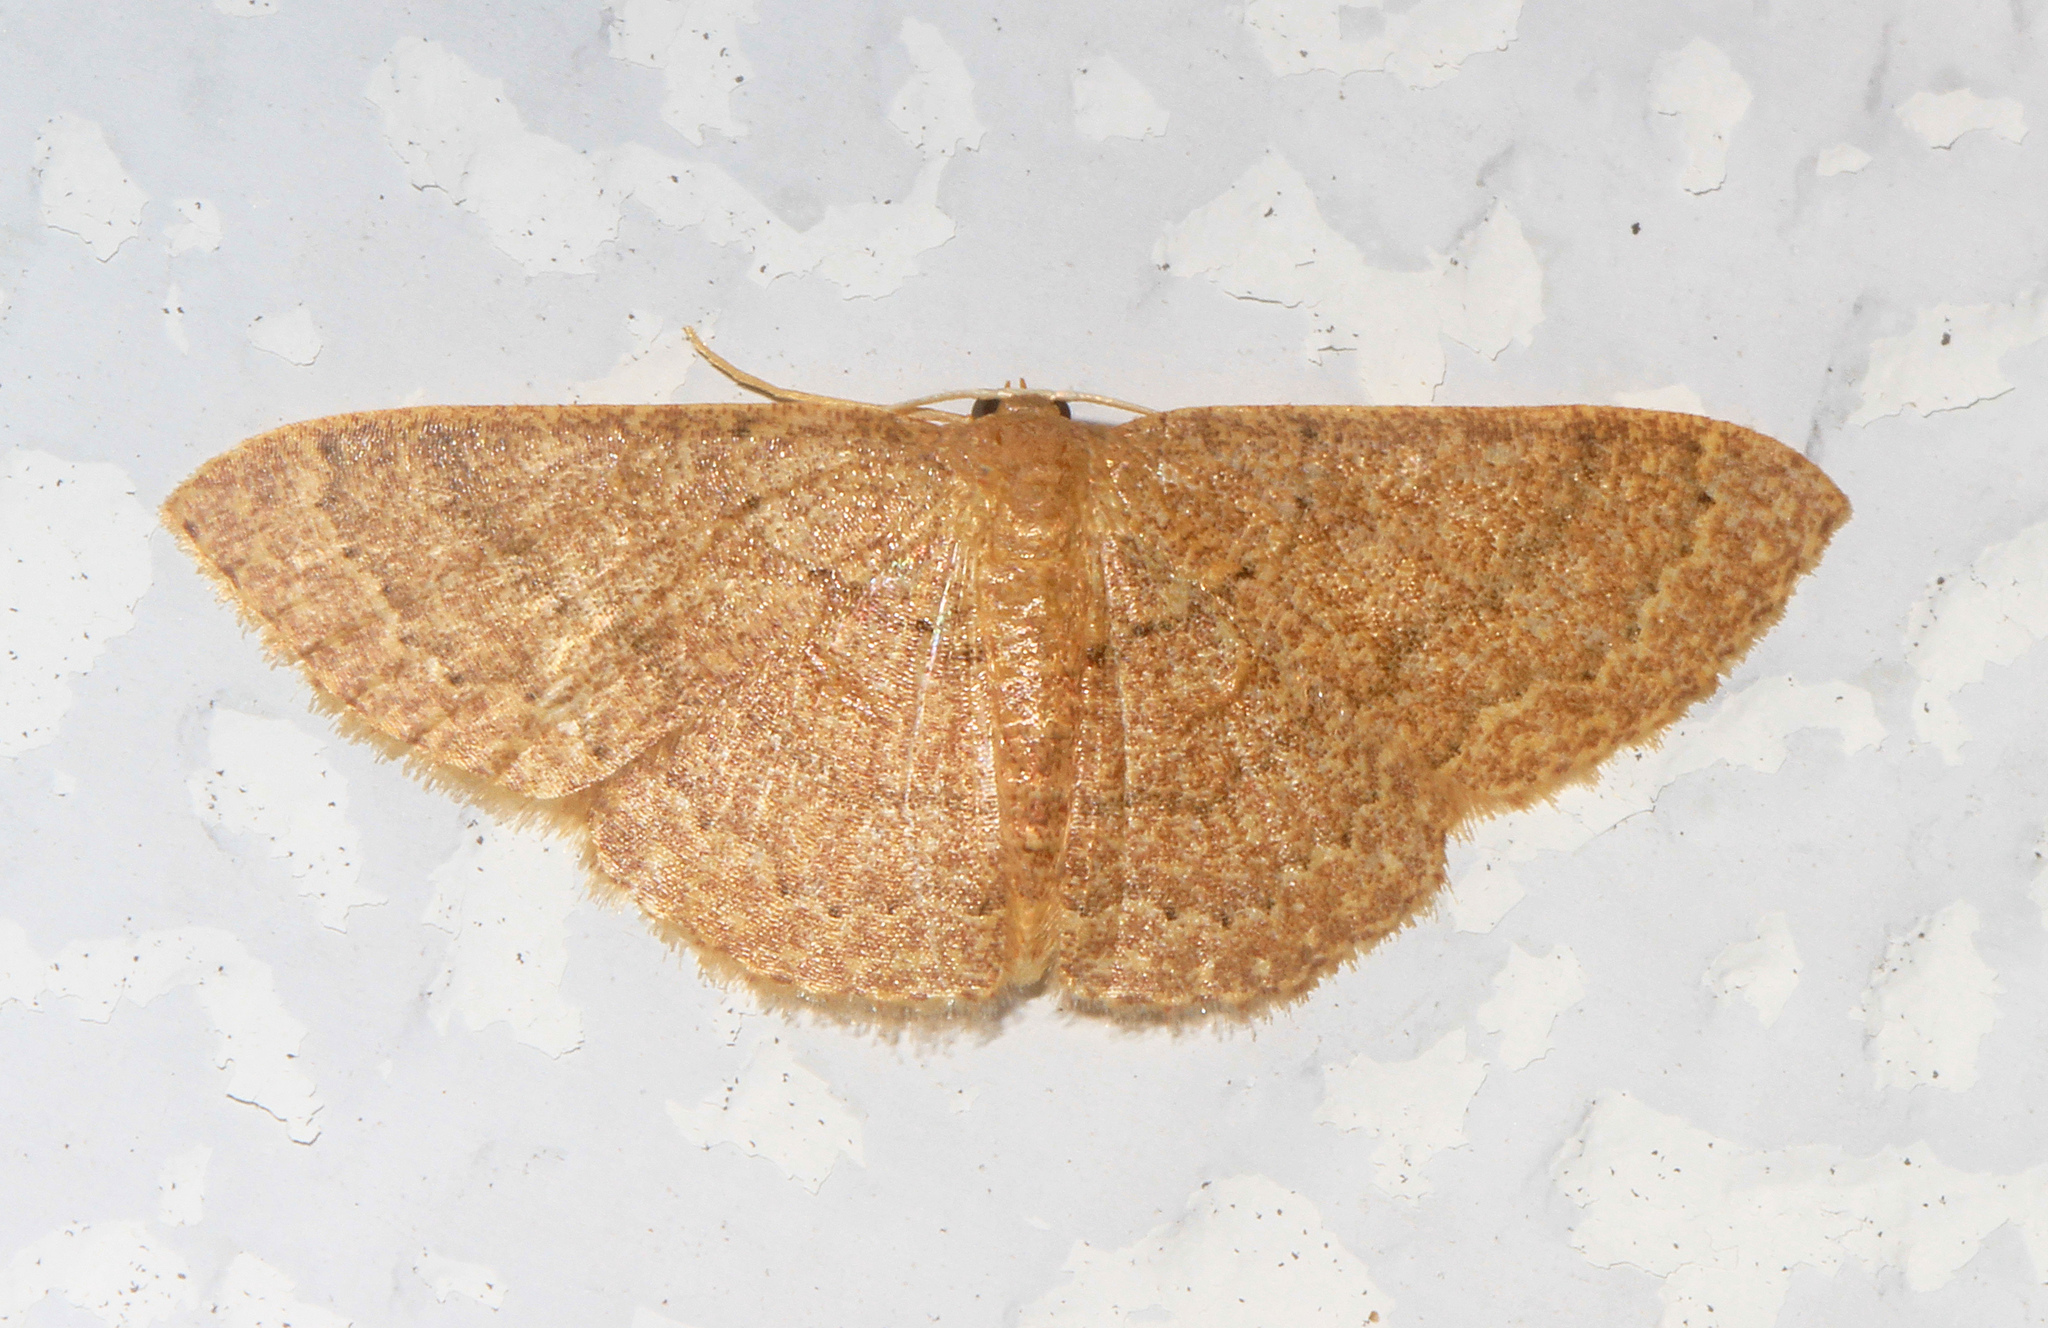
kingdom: Animalia
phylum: Arthropoda
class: Insecta
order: Lepidoptera
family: Geometridae
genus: Pleuroprucha
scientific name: Pleuroprucha insulsaria
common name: Common tan wave
